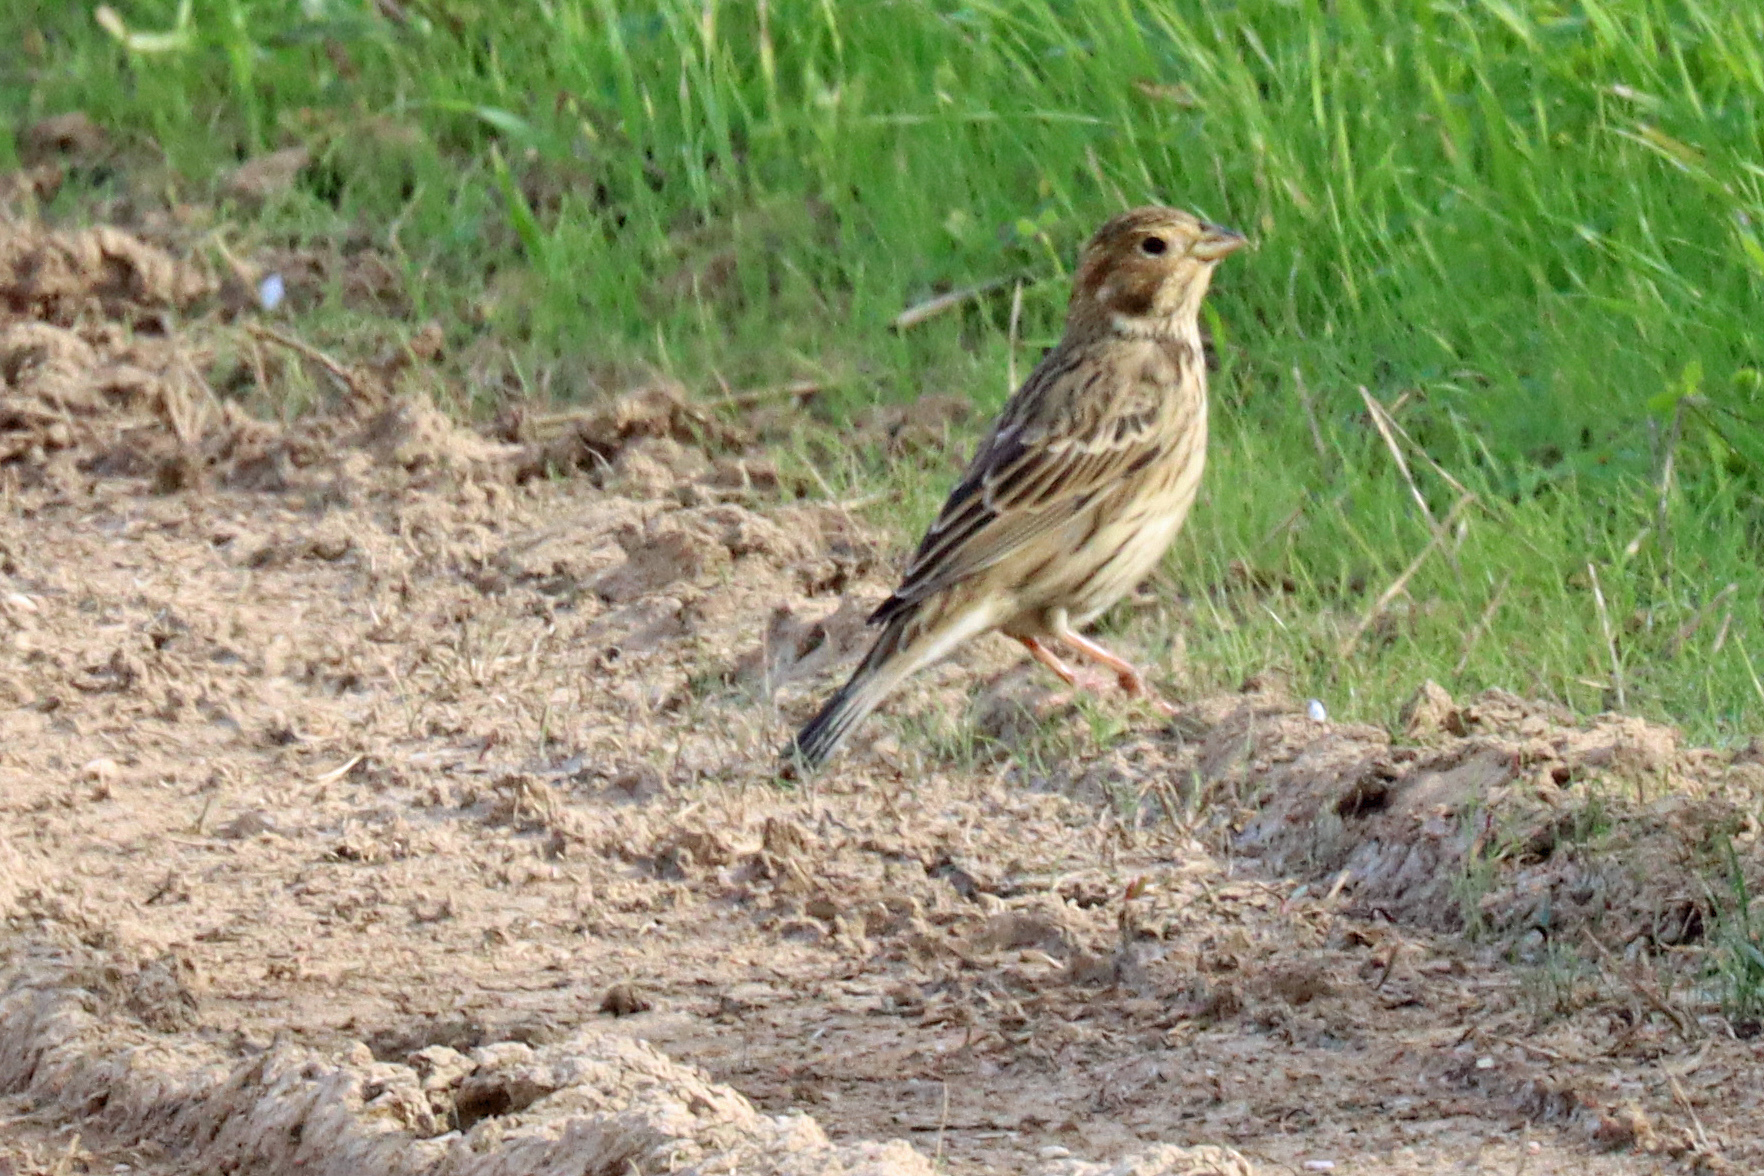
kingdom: Animalia
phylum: Chordata
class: Aves
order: Passeriformes
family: Emberizidae
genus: Emberiza
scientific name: Emberiza calandra
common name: Corn bunting
